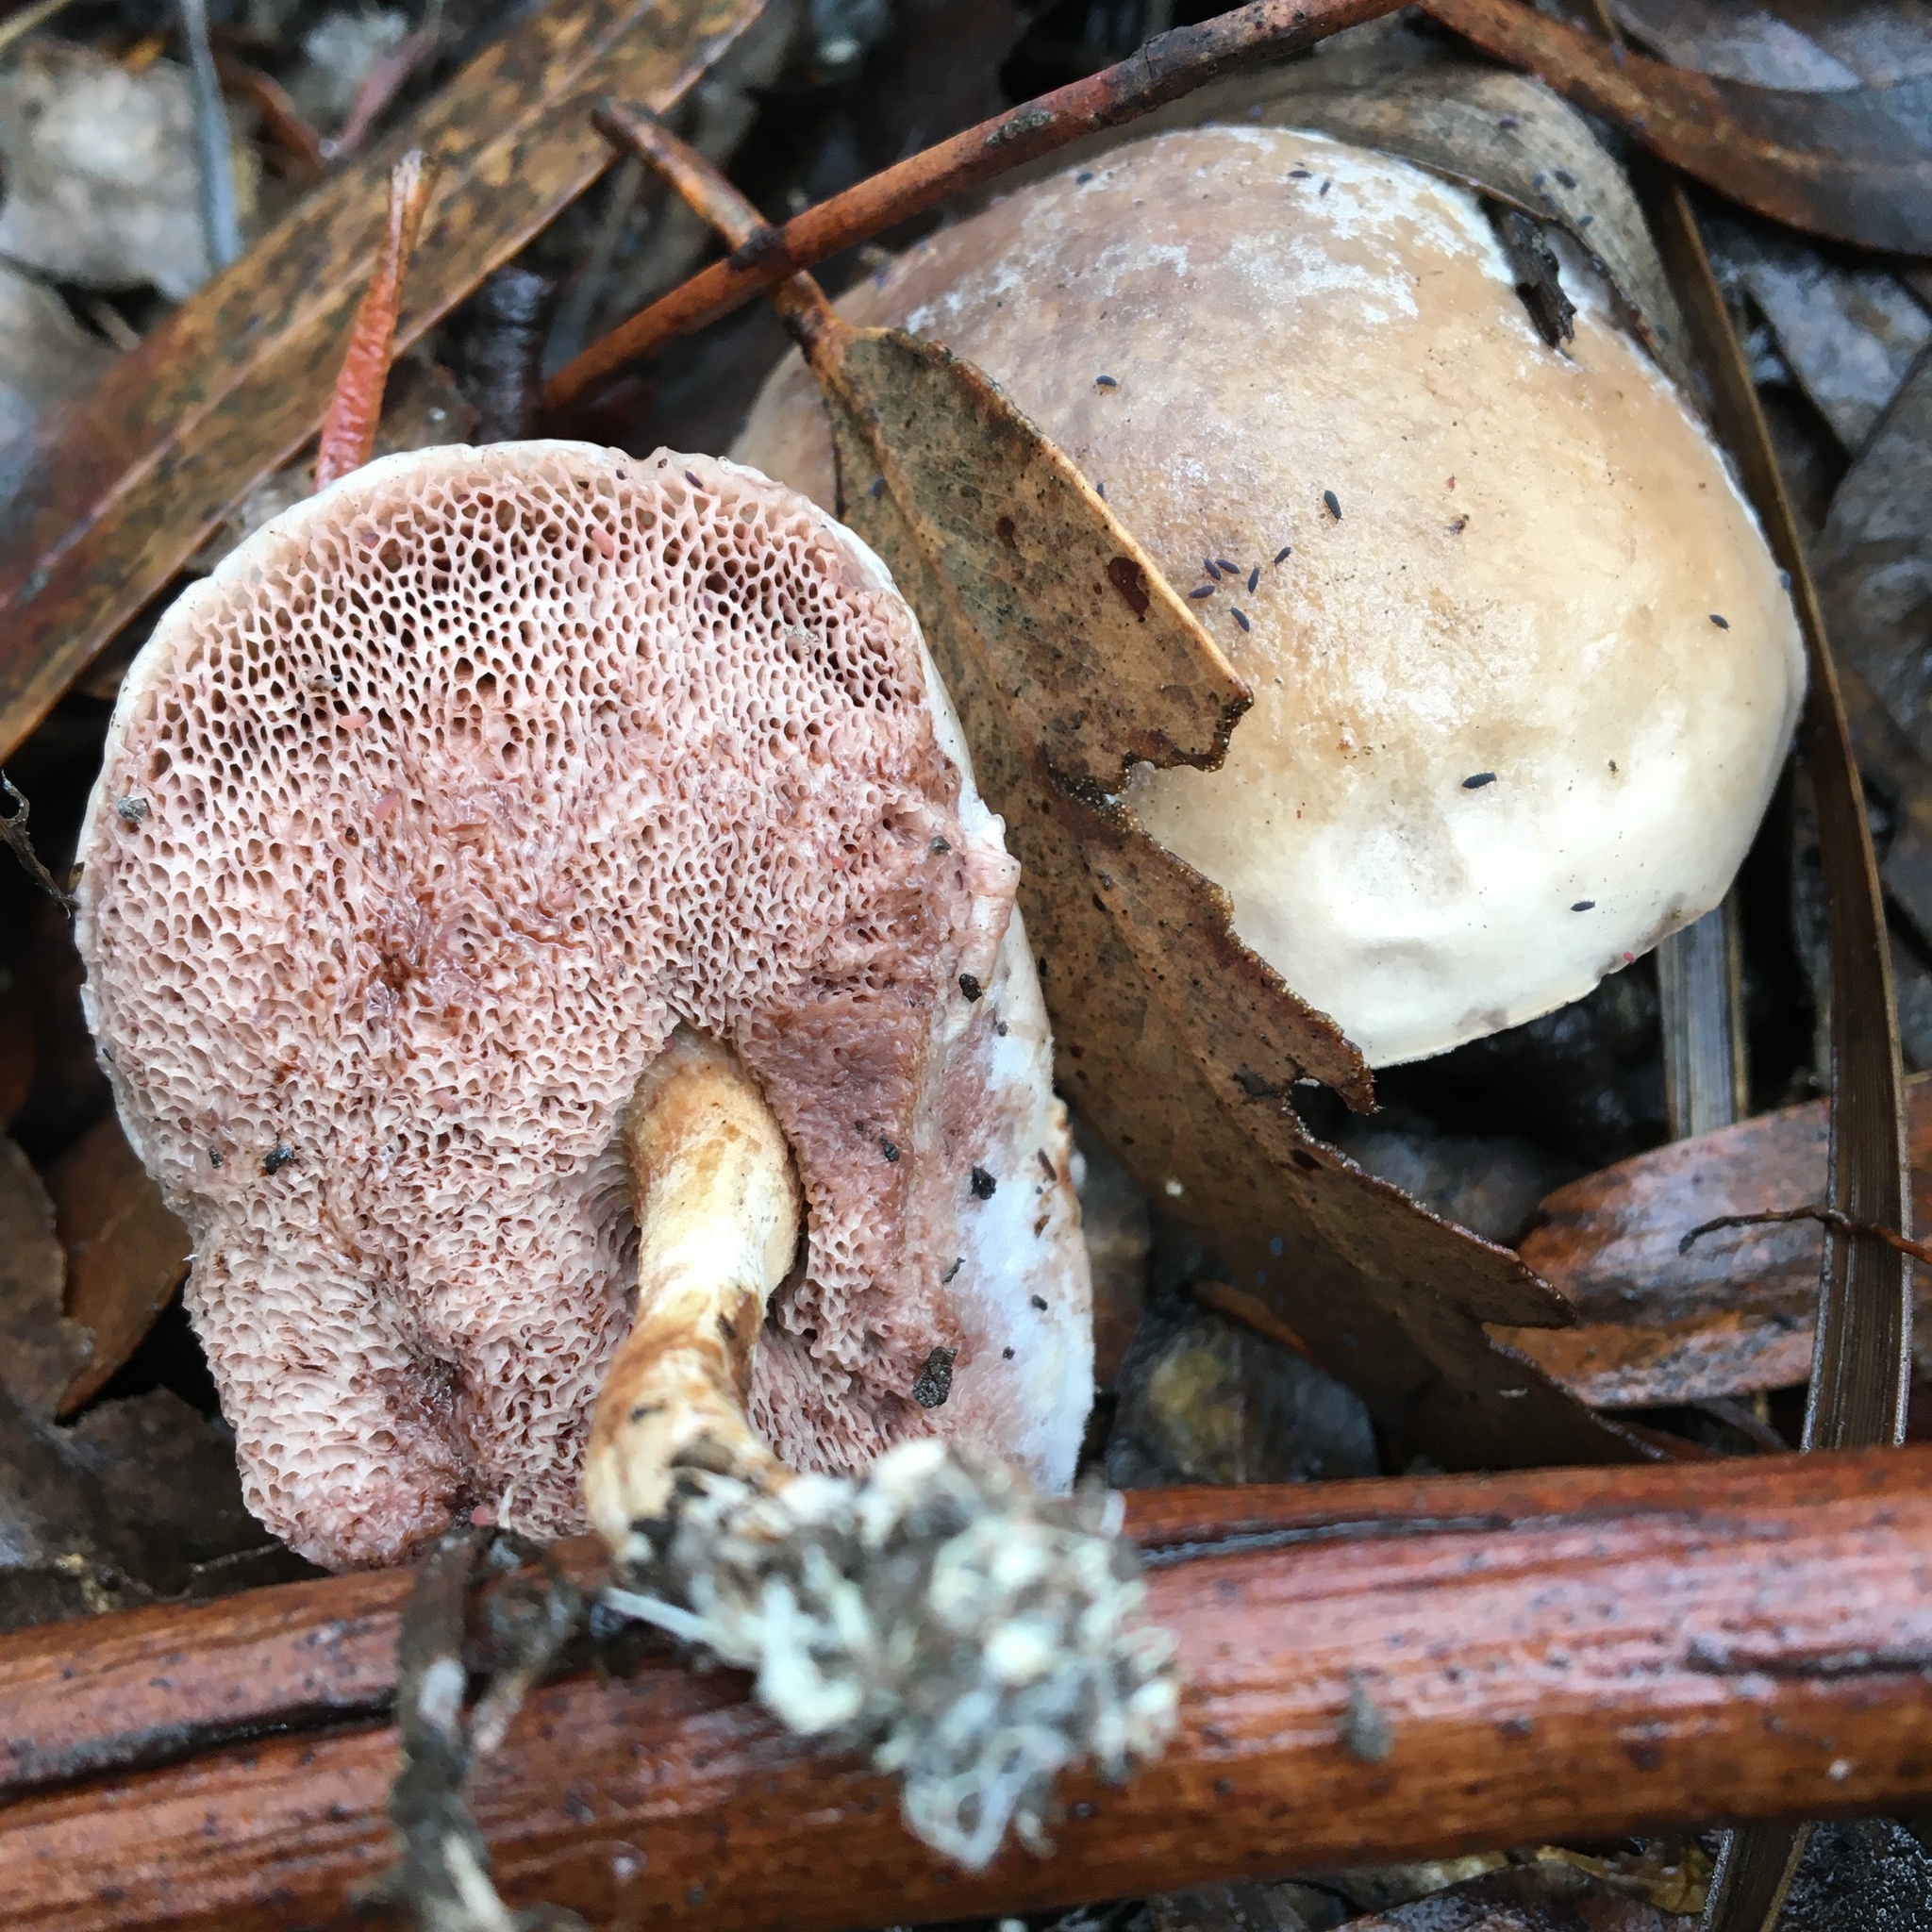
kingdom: Fungi
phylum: Basidiomycota
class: Agaricomycetes
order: Boletales
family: Boletaceae
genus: Fistulinella
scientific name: Fistulinella mollis
